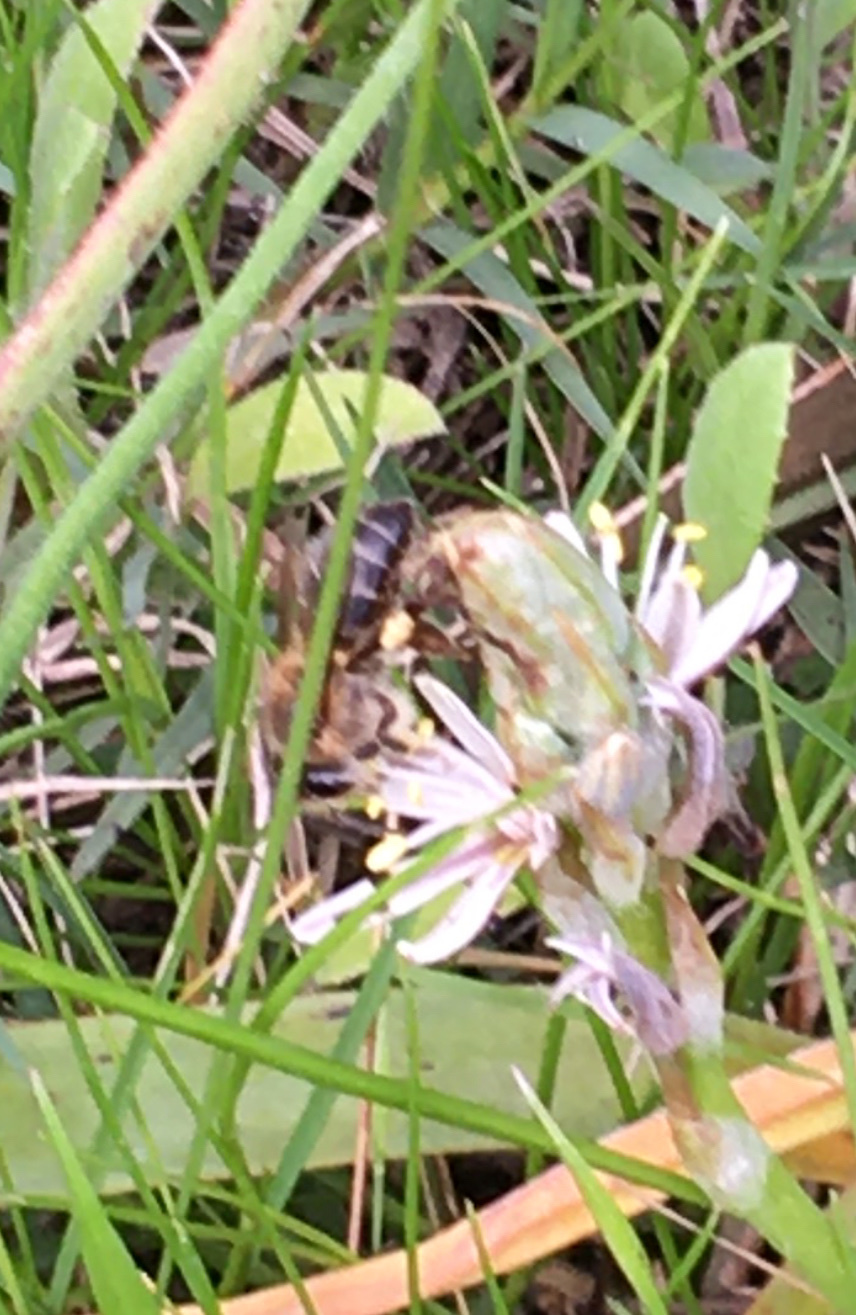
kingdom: Animalia
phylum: Arthropoda
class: Insecta
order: Hymenoptera
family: Apidae
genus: Apis
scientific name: Apis mellifera
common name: Honey bee
